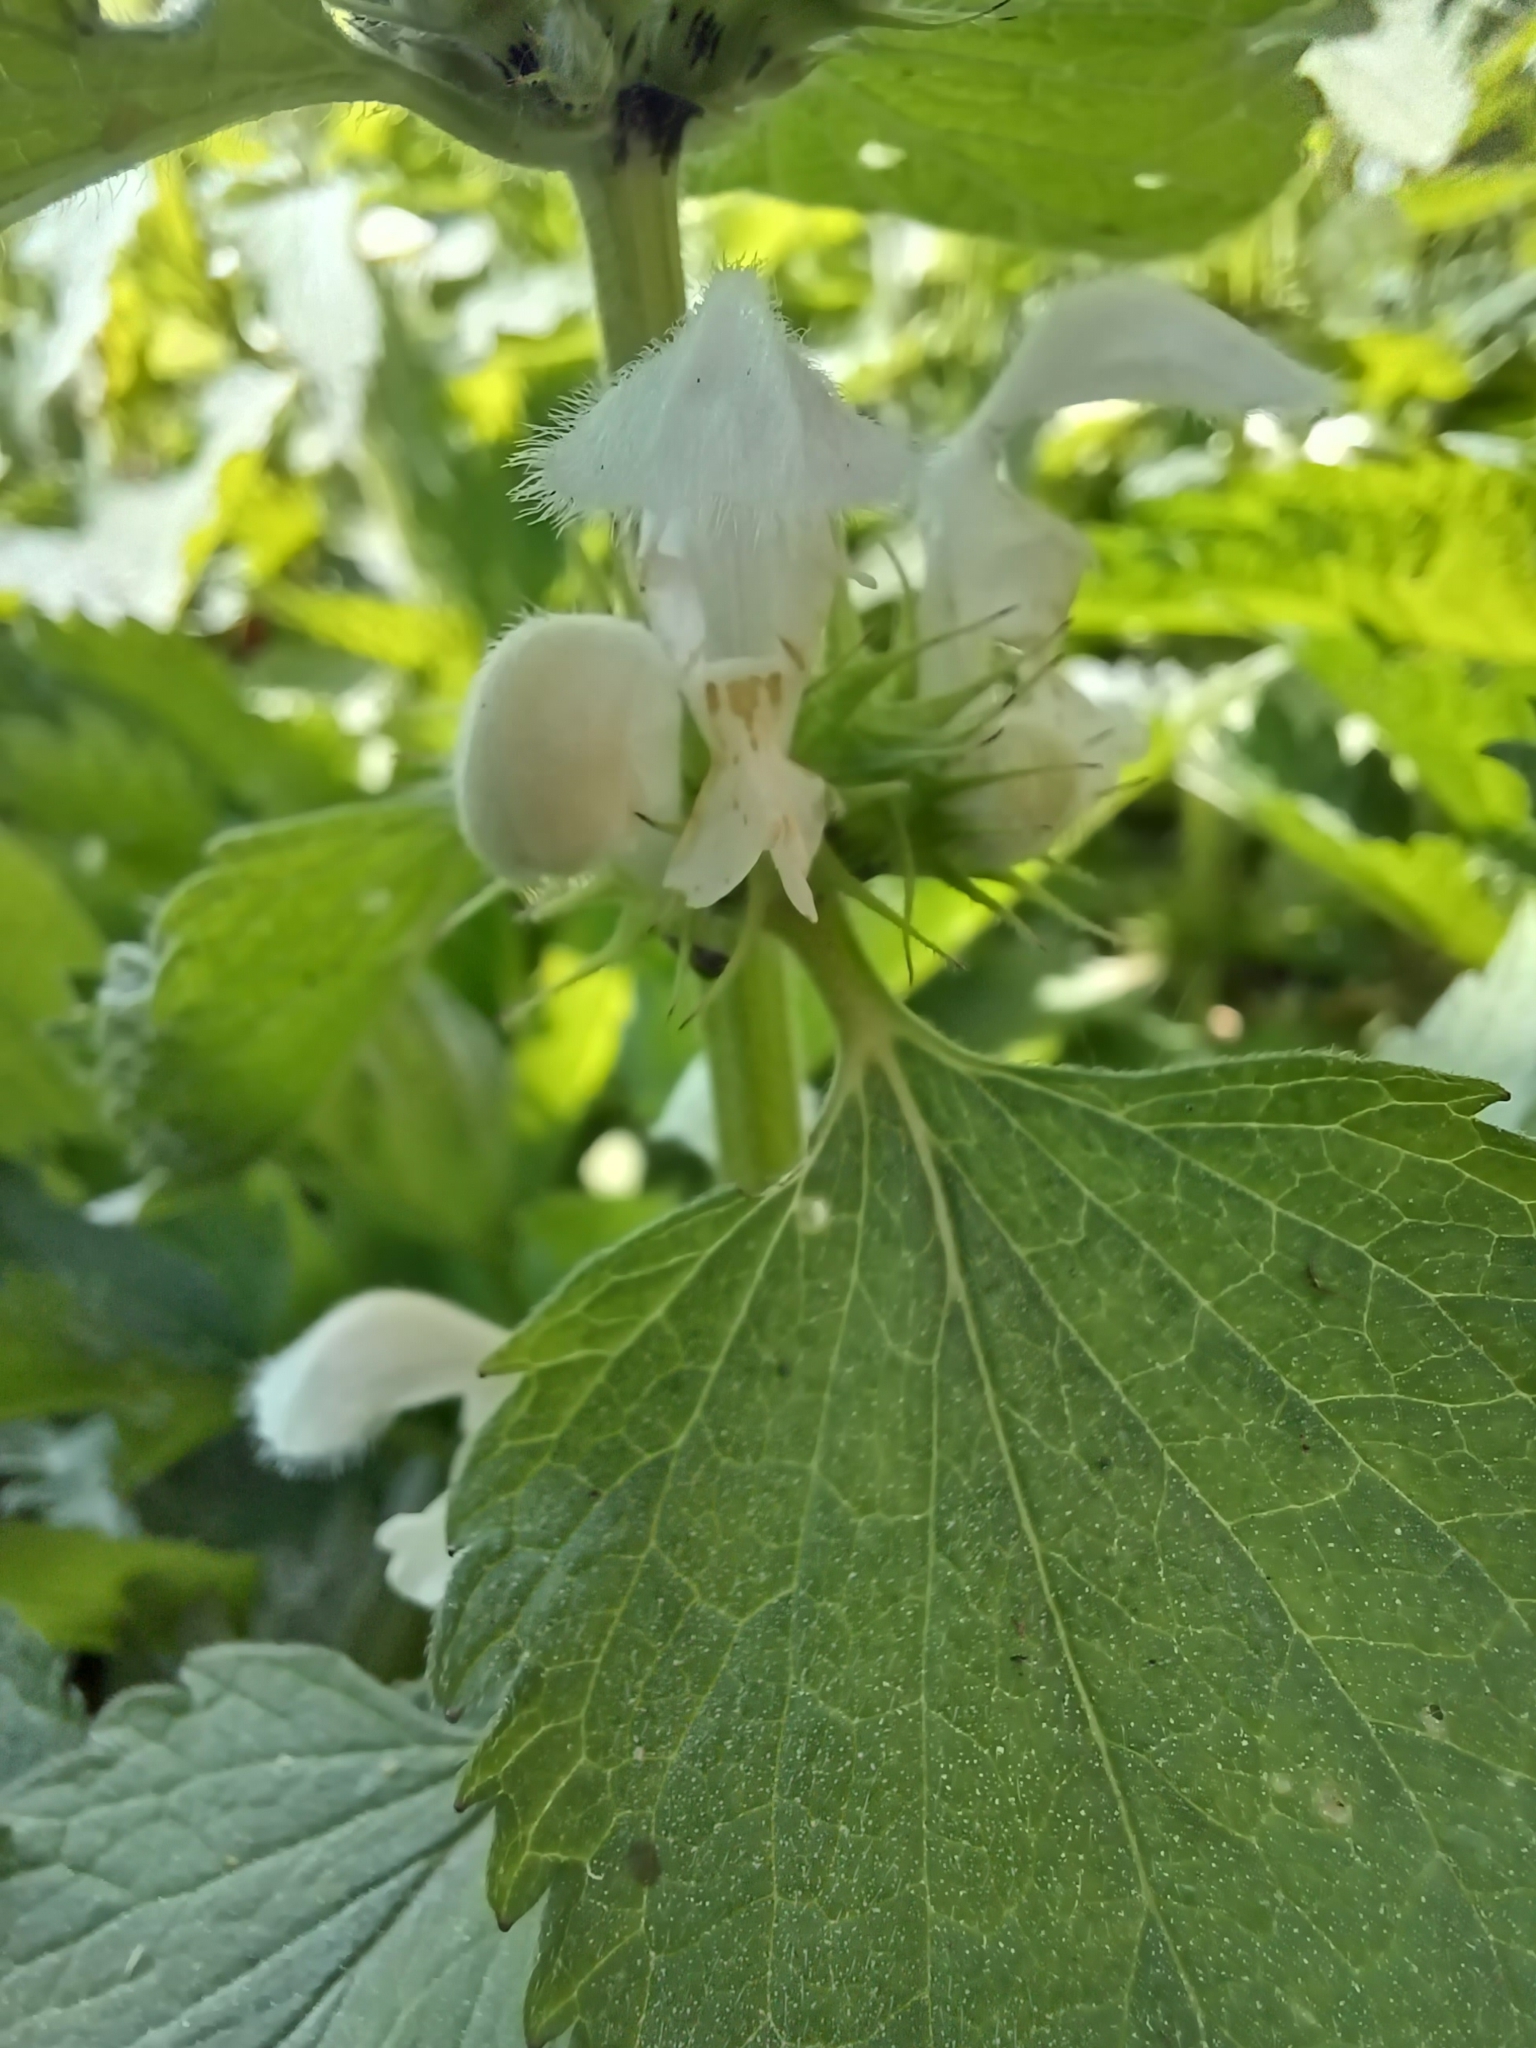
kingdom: Plantae
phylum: Tracheophyta
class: Magnoliopsida
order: Lamiales
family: Lamiaceae
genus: Lamium
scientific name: Lamium album
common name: White dead-nettle
